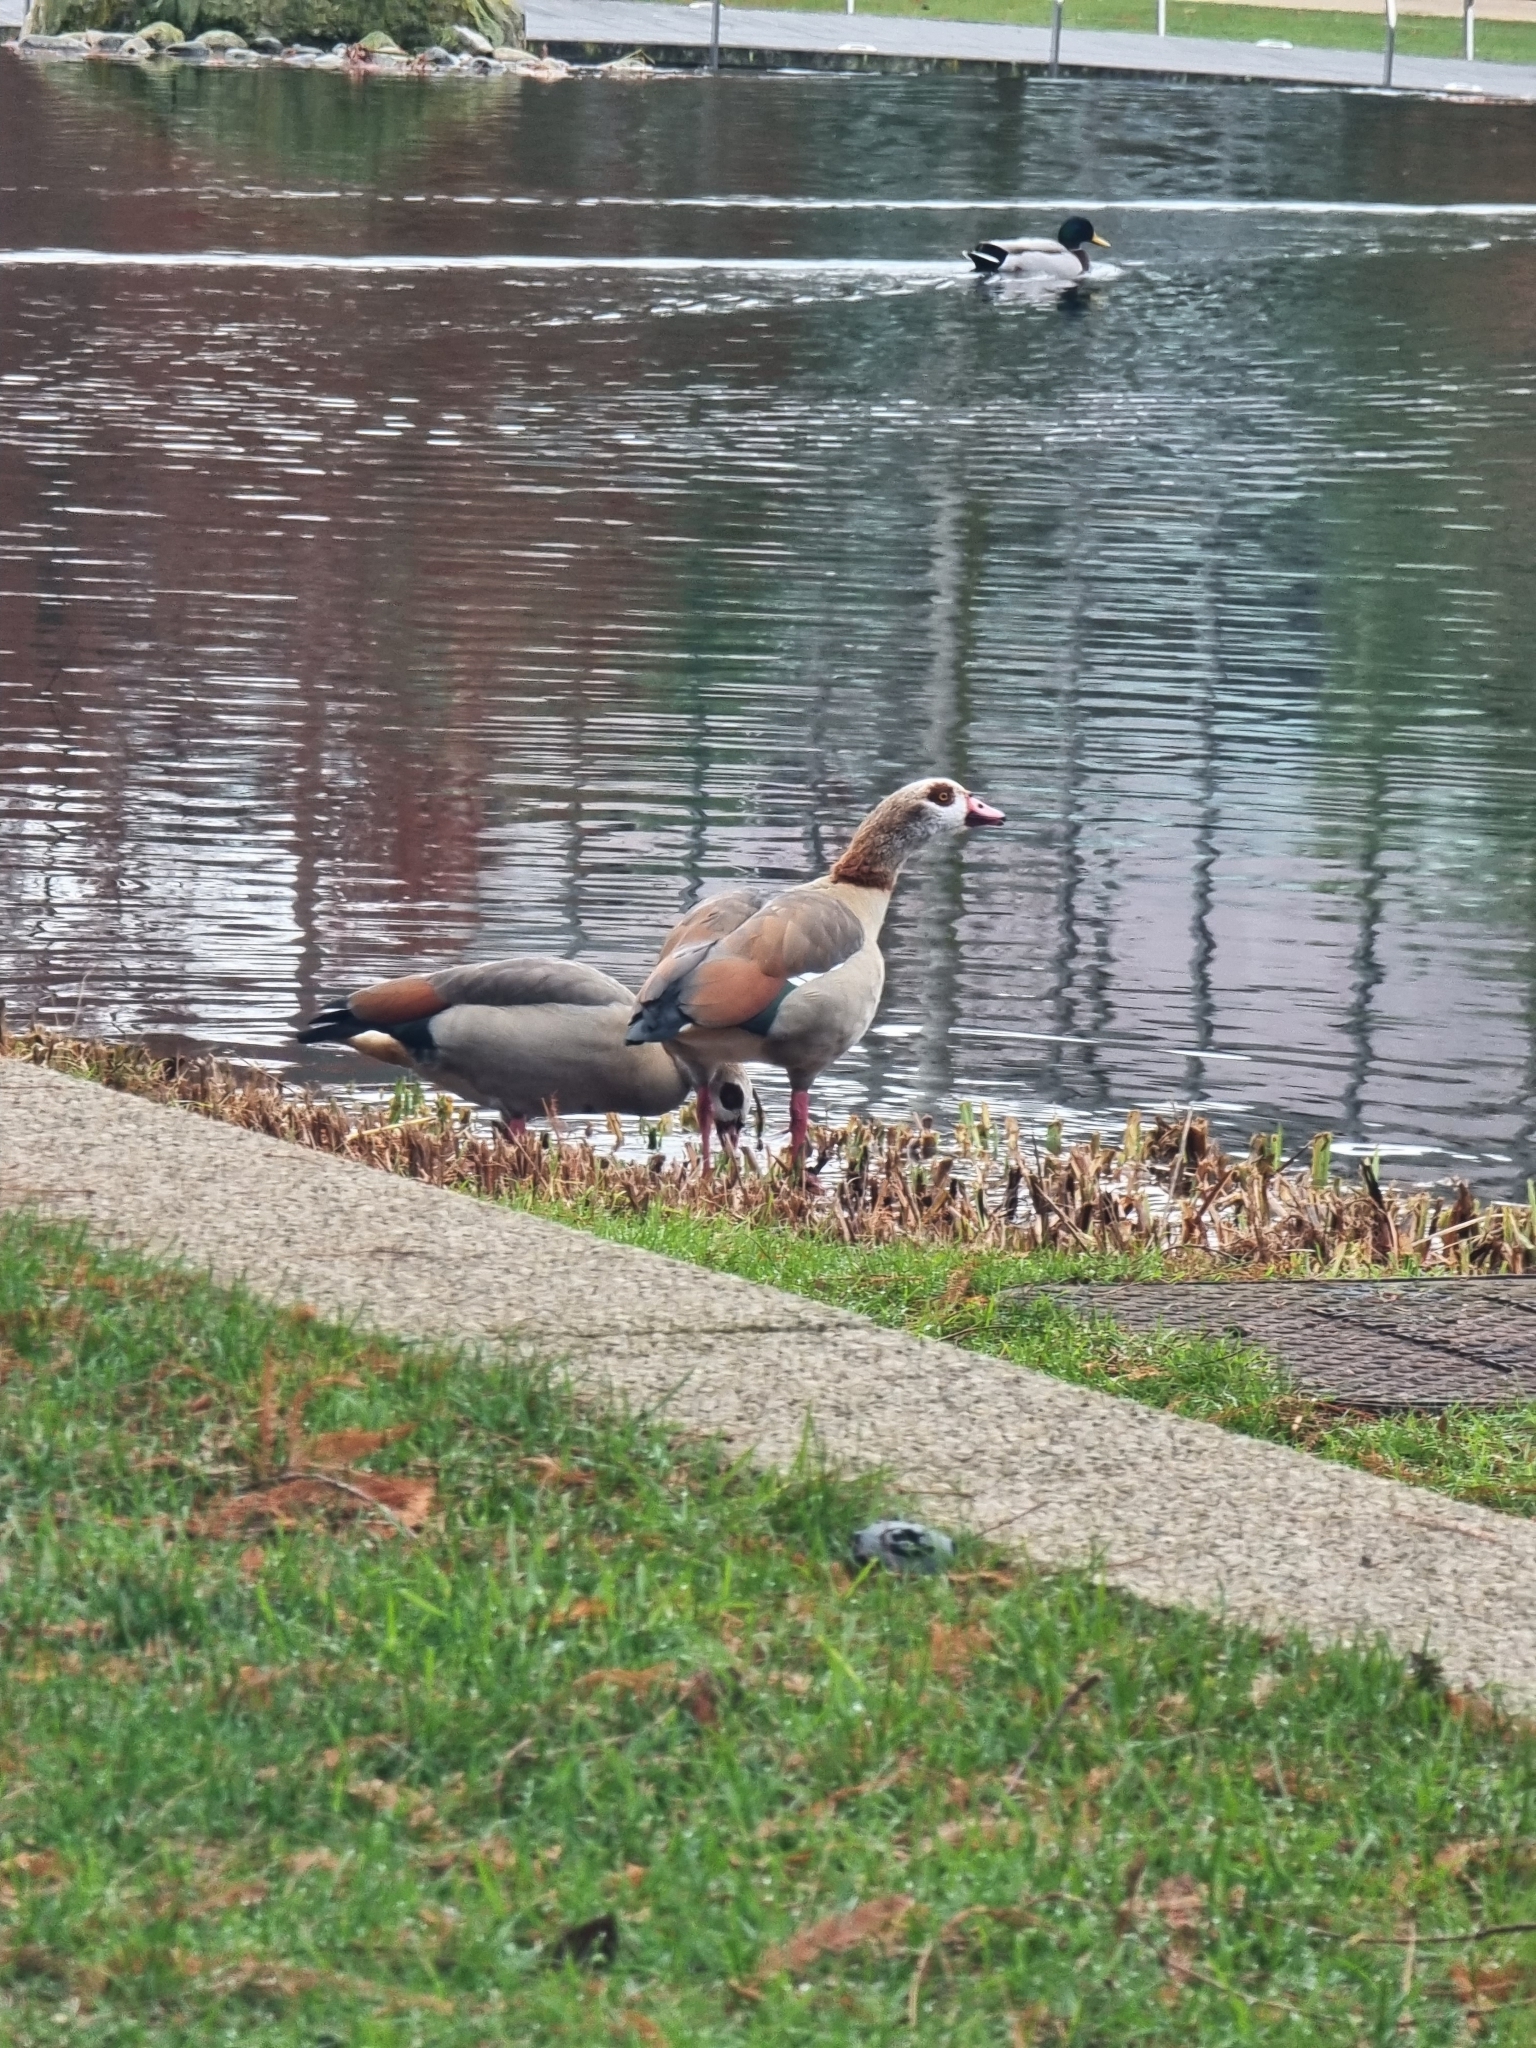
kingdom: Animalia
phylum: Chordata
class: Aves
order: Anseriformes
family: Anatidae
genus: Alopochen
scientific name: Alopochen aegyptiaca
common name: Egyptian goose
